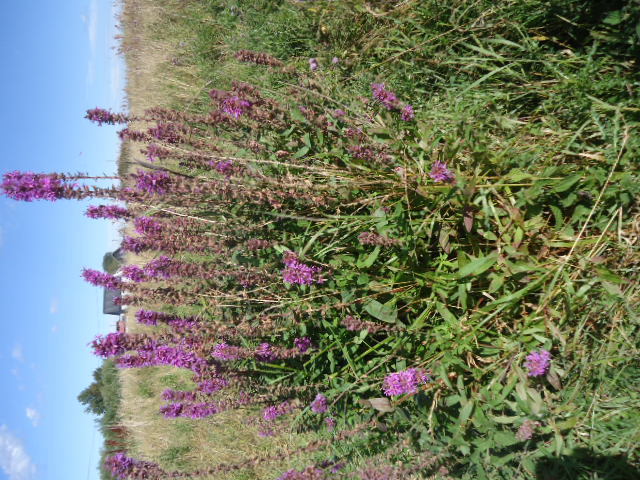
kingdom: Plantae
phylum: Tracheophyta
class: Magnoliopsida
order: Myrtales
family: Lythraceae
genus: Lythrum
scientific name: Lythrum salicaria
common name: Purple loosestrife
